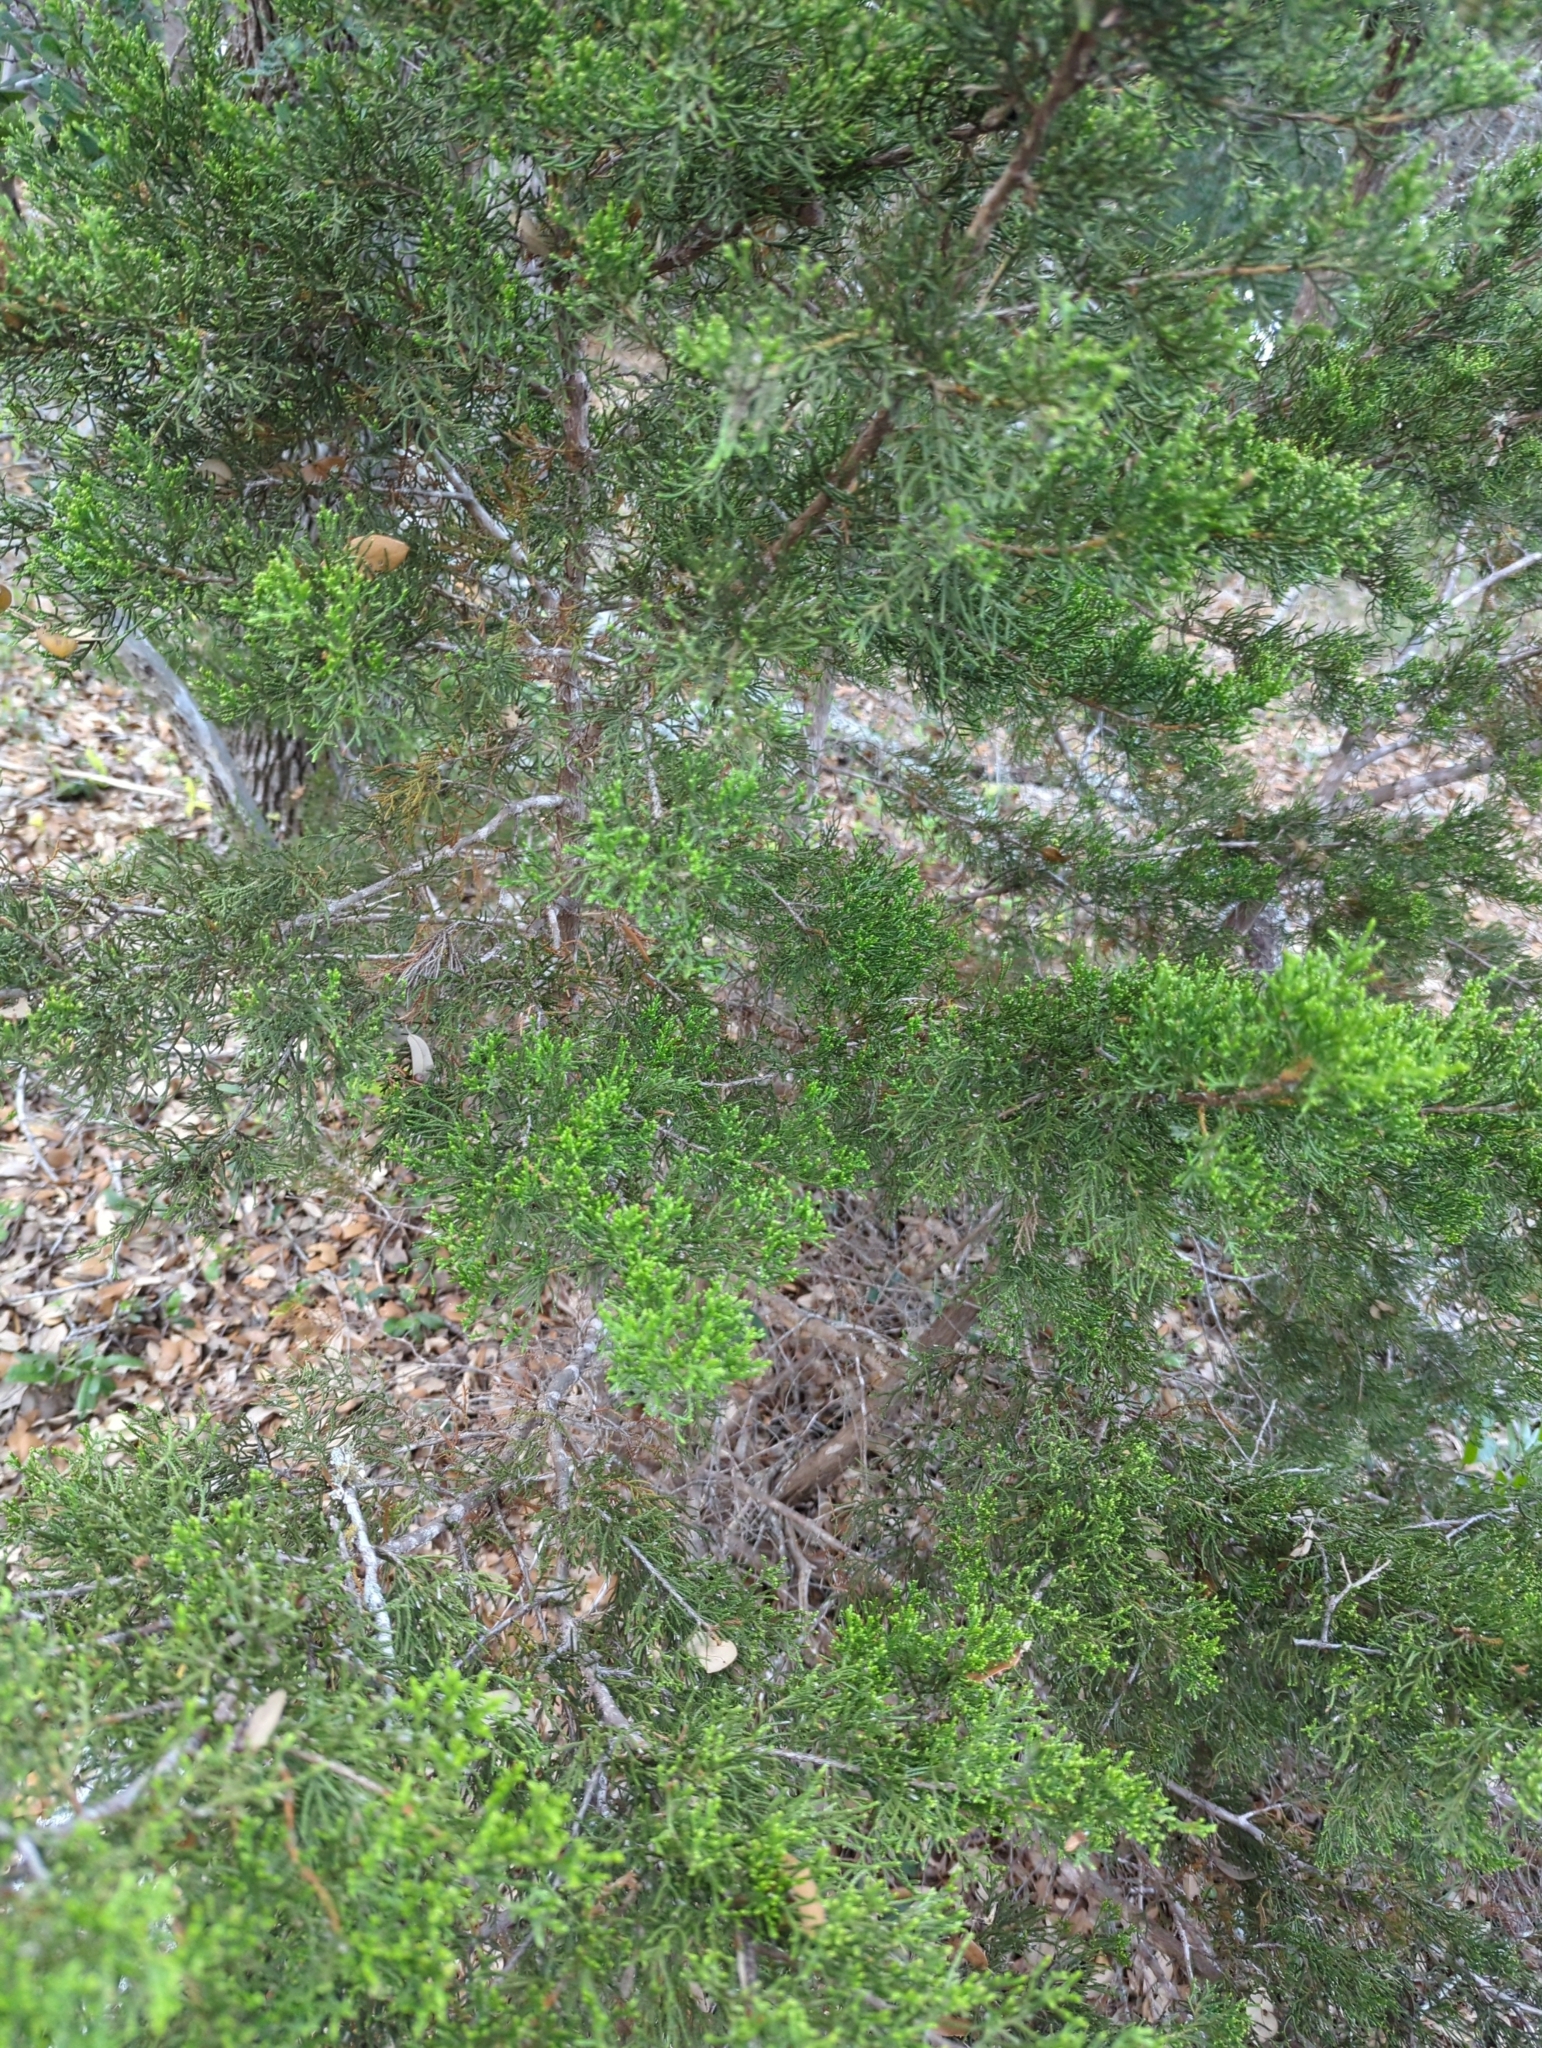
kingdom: Plantae
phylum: Tracheophyta
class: Pinopsida
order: Pinales
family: Cupressaceae
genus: Juniperus
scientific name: Juniperus ashei
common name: Mexican juniper
